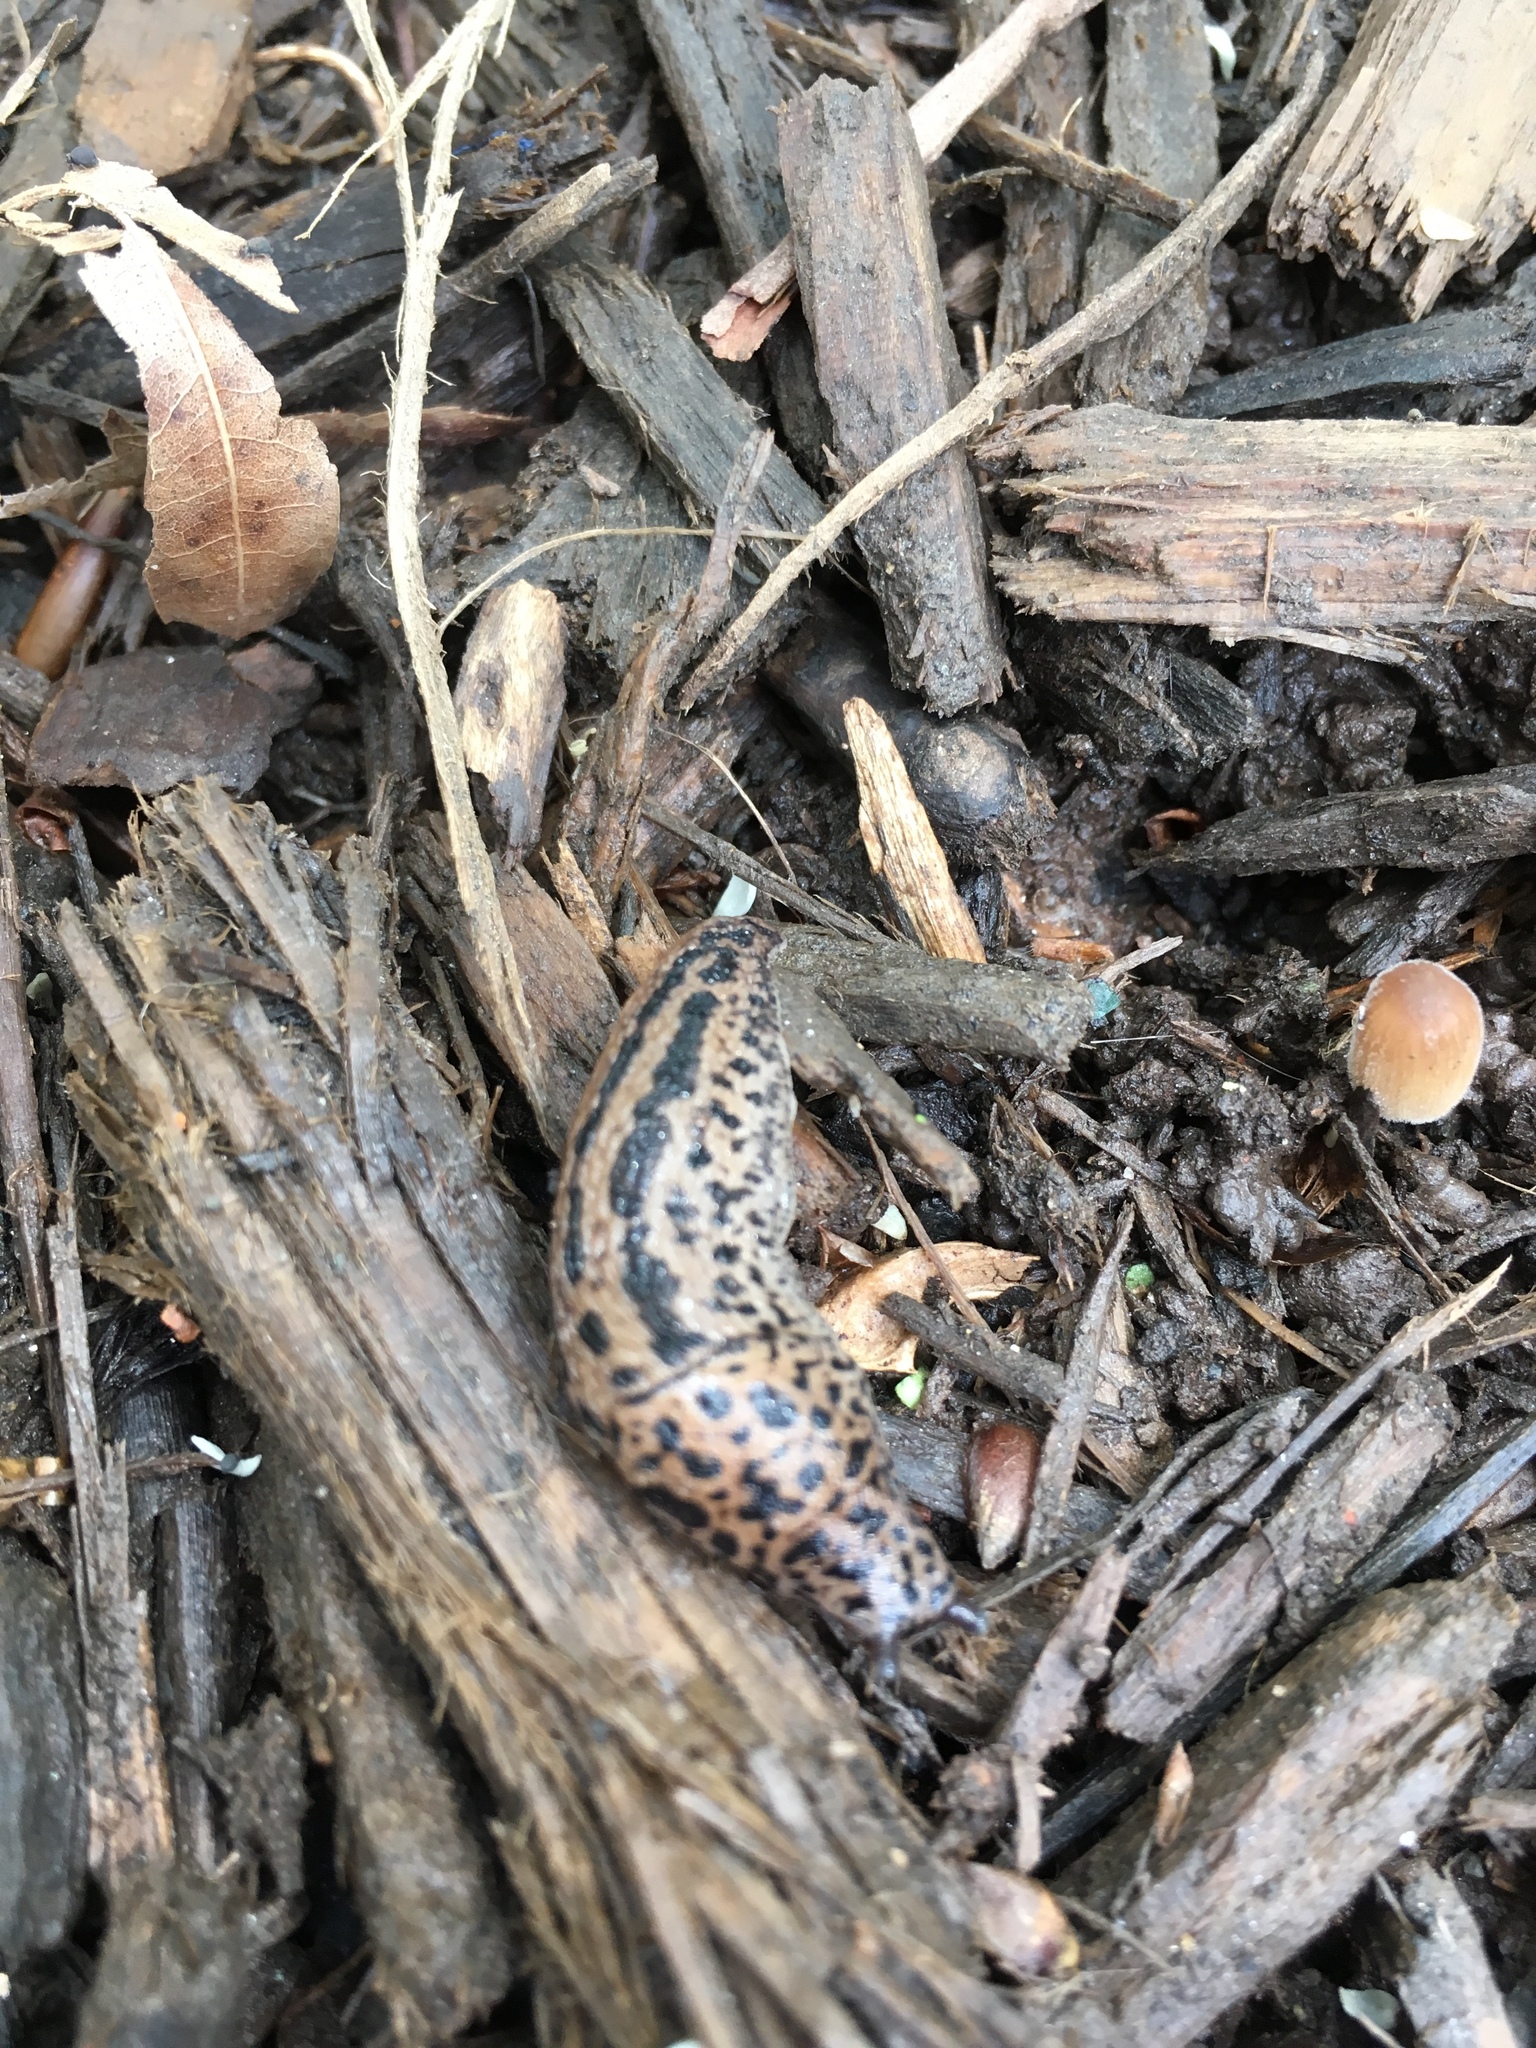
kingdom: Animalia
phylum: Mollusca
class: Gastropoda
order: Stylommatophora
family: Limacidae
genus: Limax
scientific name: Limax maximus
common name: Great grey slug
